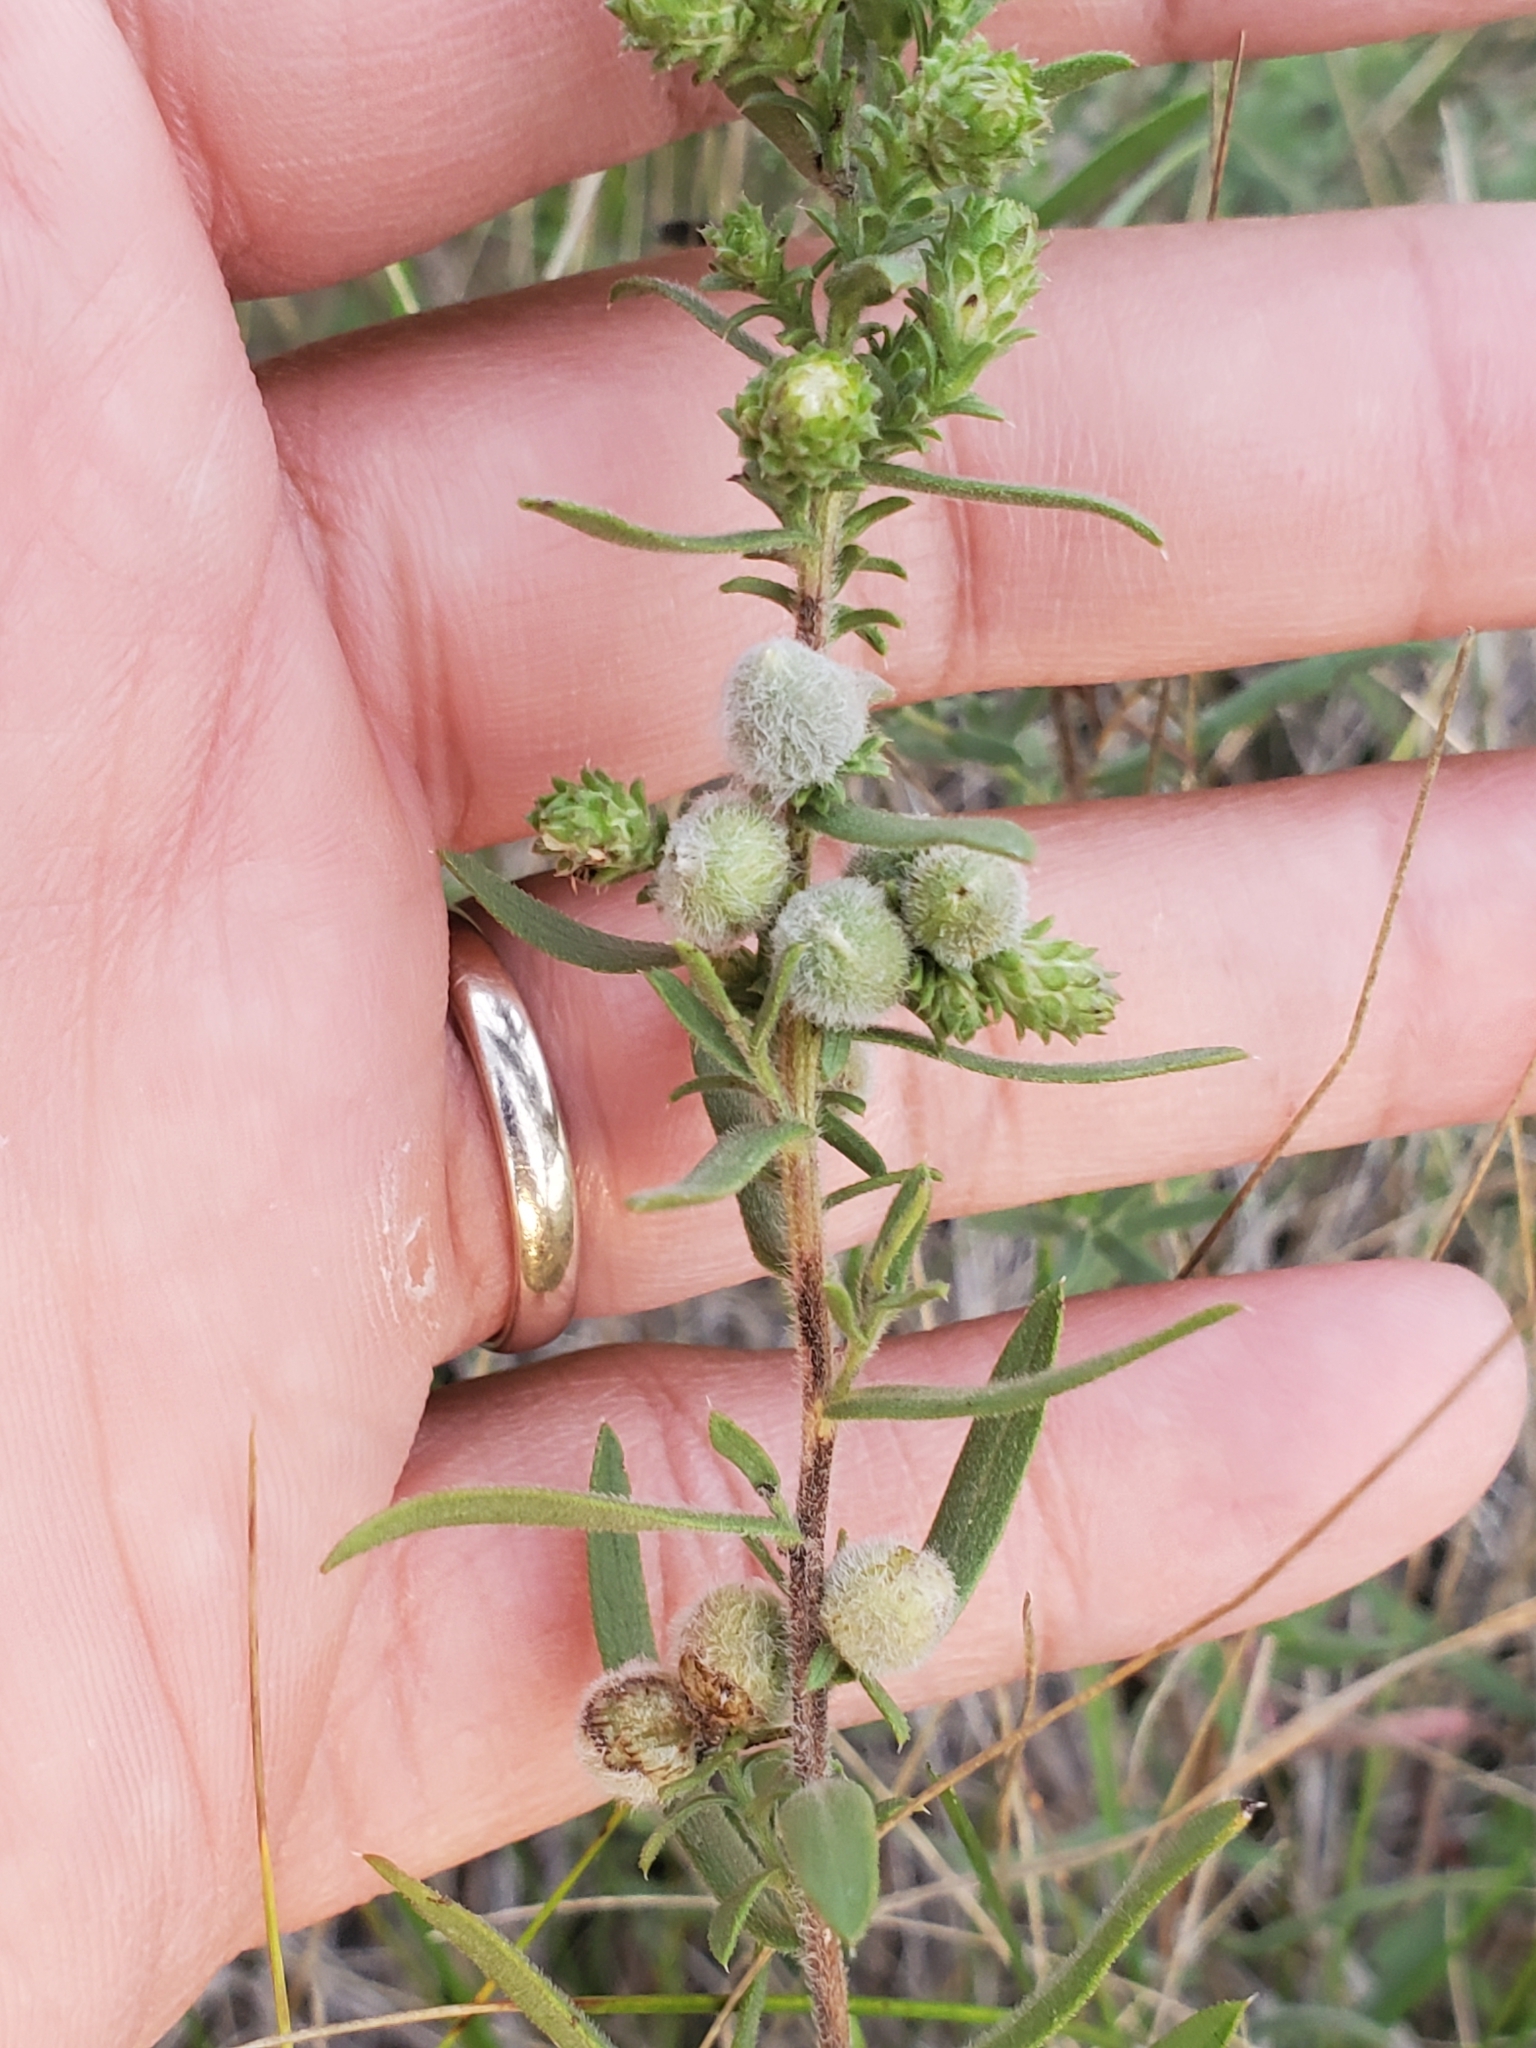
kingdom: Animalia
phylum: Arthropoda
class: Insecta
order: Diptera
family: Cecidomyiidae
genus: Rhopalomyia
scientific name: Rhopalomyia gemmaria
